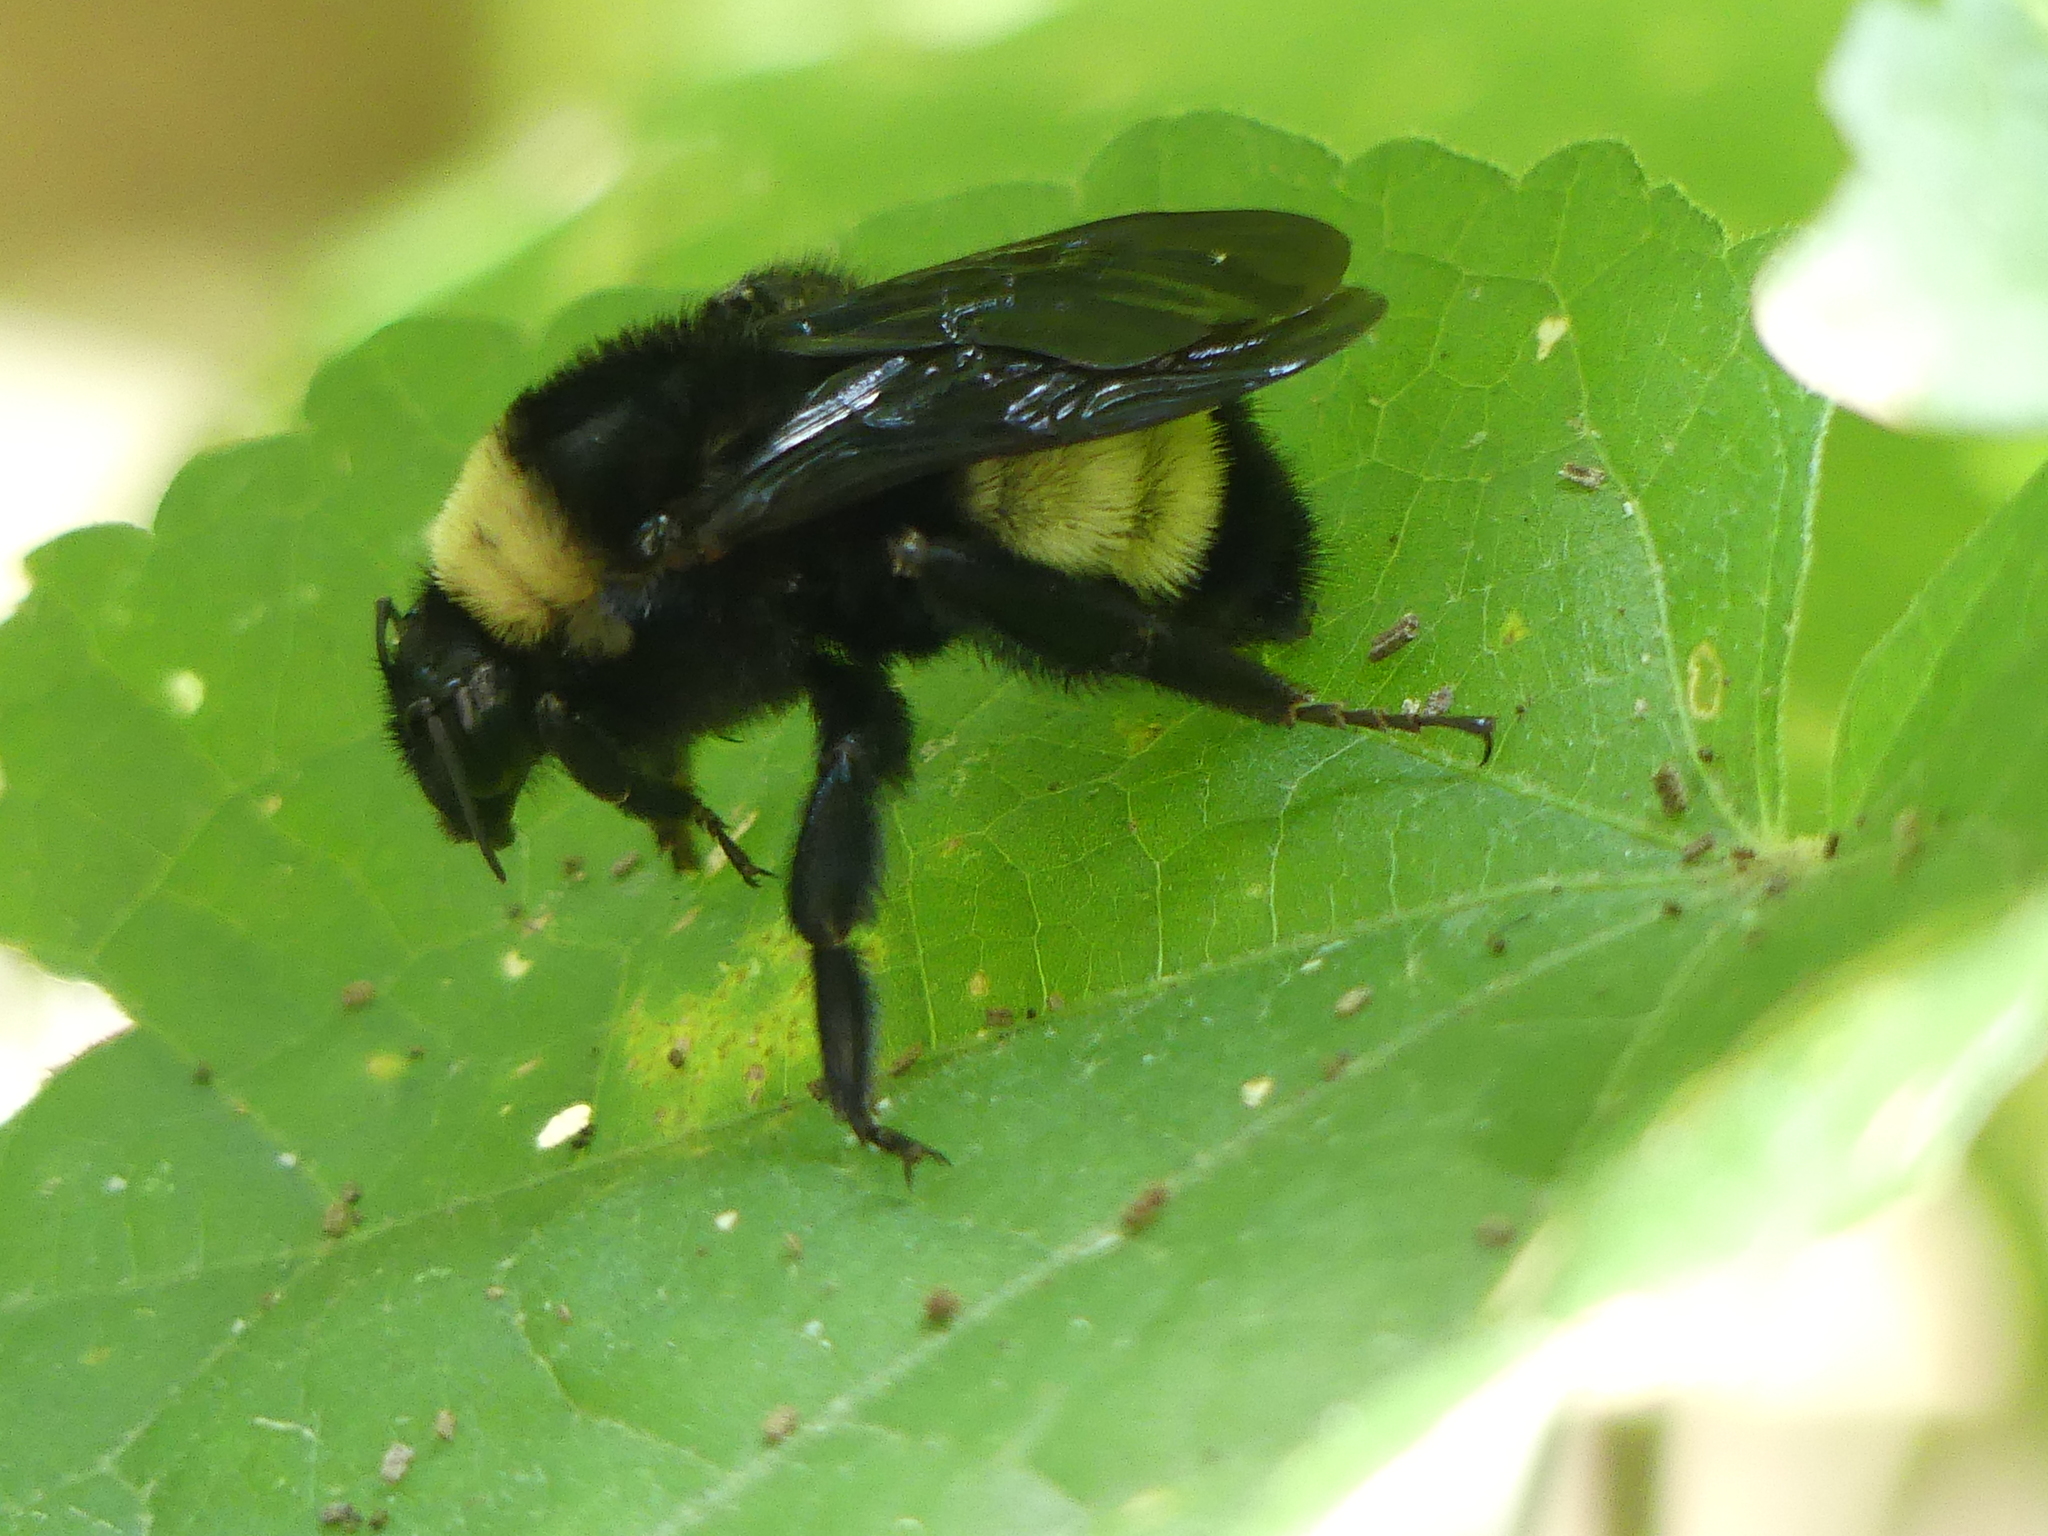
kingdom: Animalia
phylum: Arthropoda
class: Insecta
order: Hymenoptera
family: Apidae
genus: Bombus
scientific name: Bombus pensylvanicus
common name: Bumble bee
